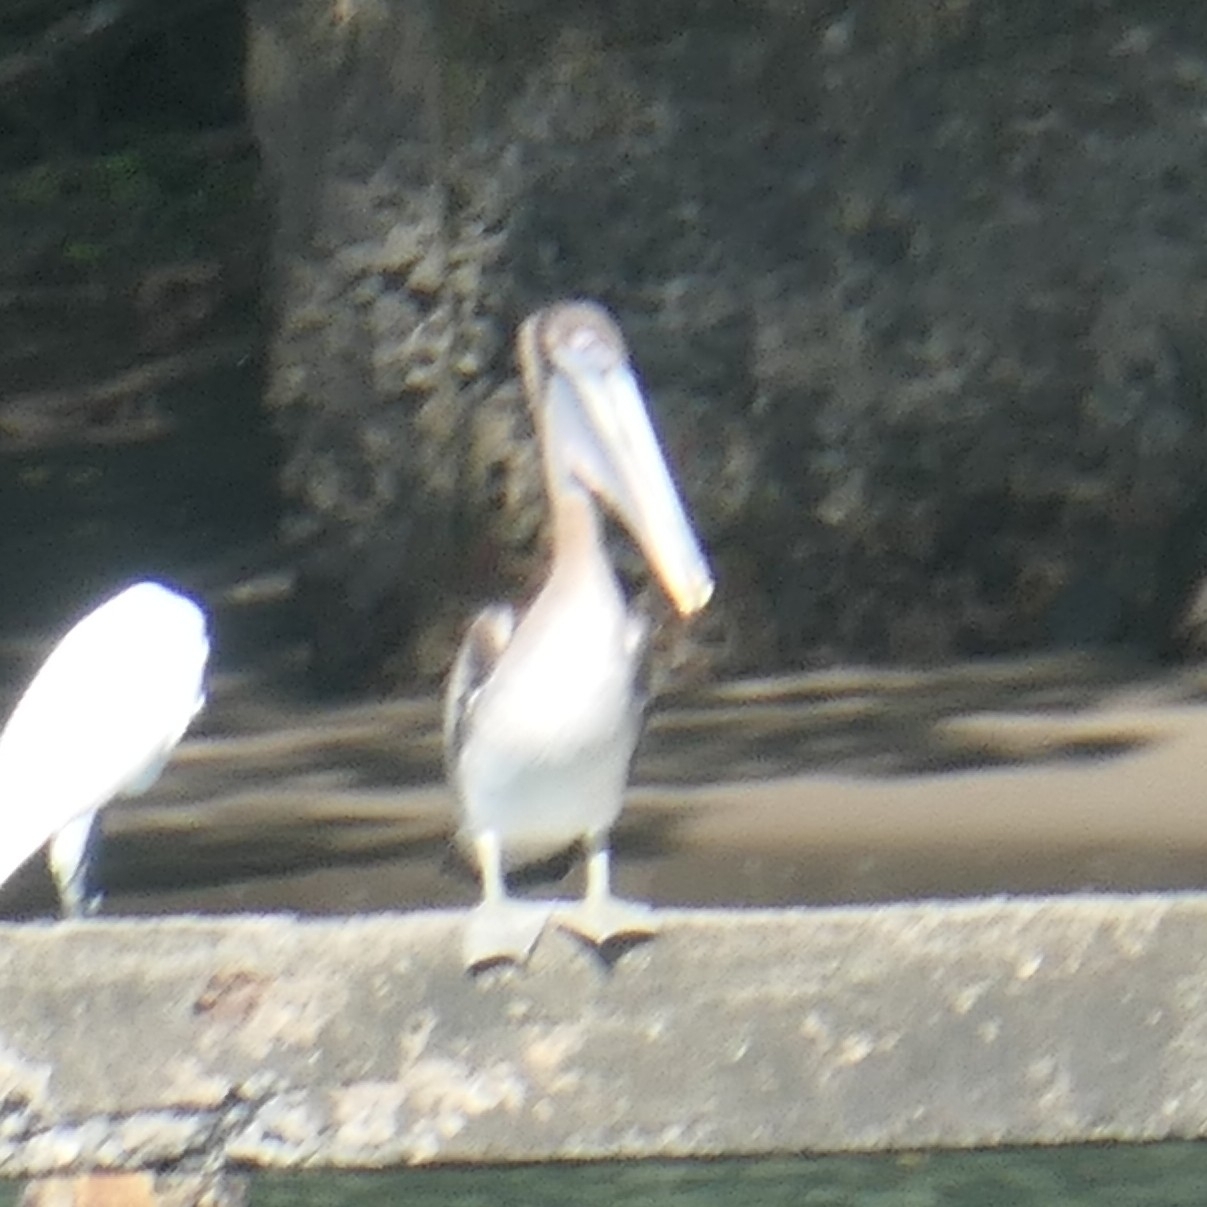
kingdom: Animalia
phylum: Chordata
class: Aves
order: Pelecaniformes
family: Pelecanidae
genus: Pelecanus
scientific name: Pelecanus occidentalis
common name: Brown pelican
